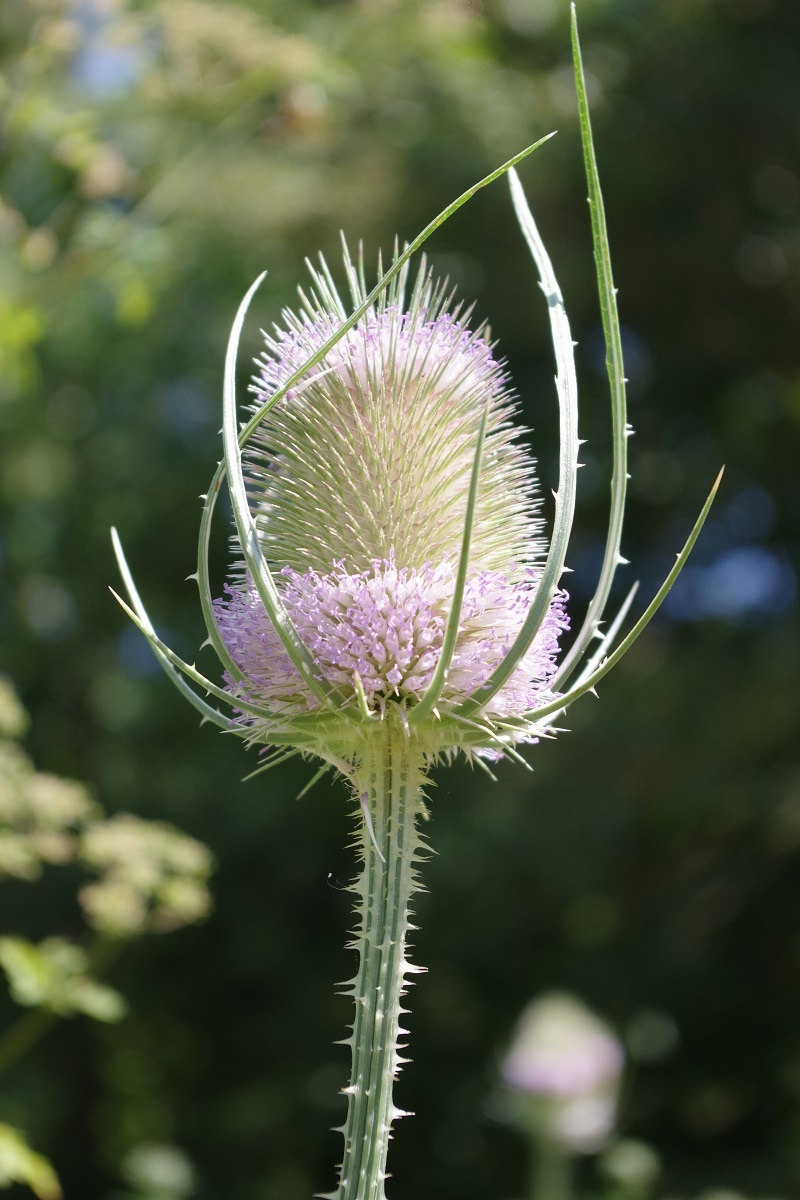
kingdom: Plantae
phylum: Tracheophyta
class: Magnoliopsida
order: Dipsacales
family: Caprifoliaceae
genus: Dipsacus
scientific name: Dipsacus fullonum
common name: Teasel
